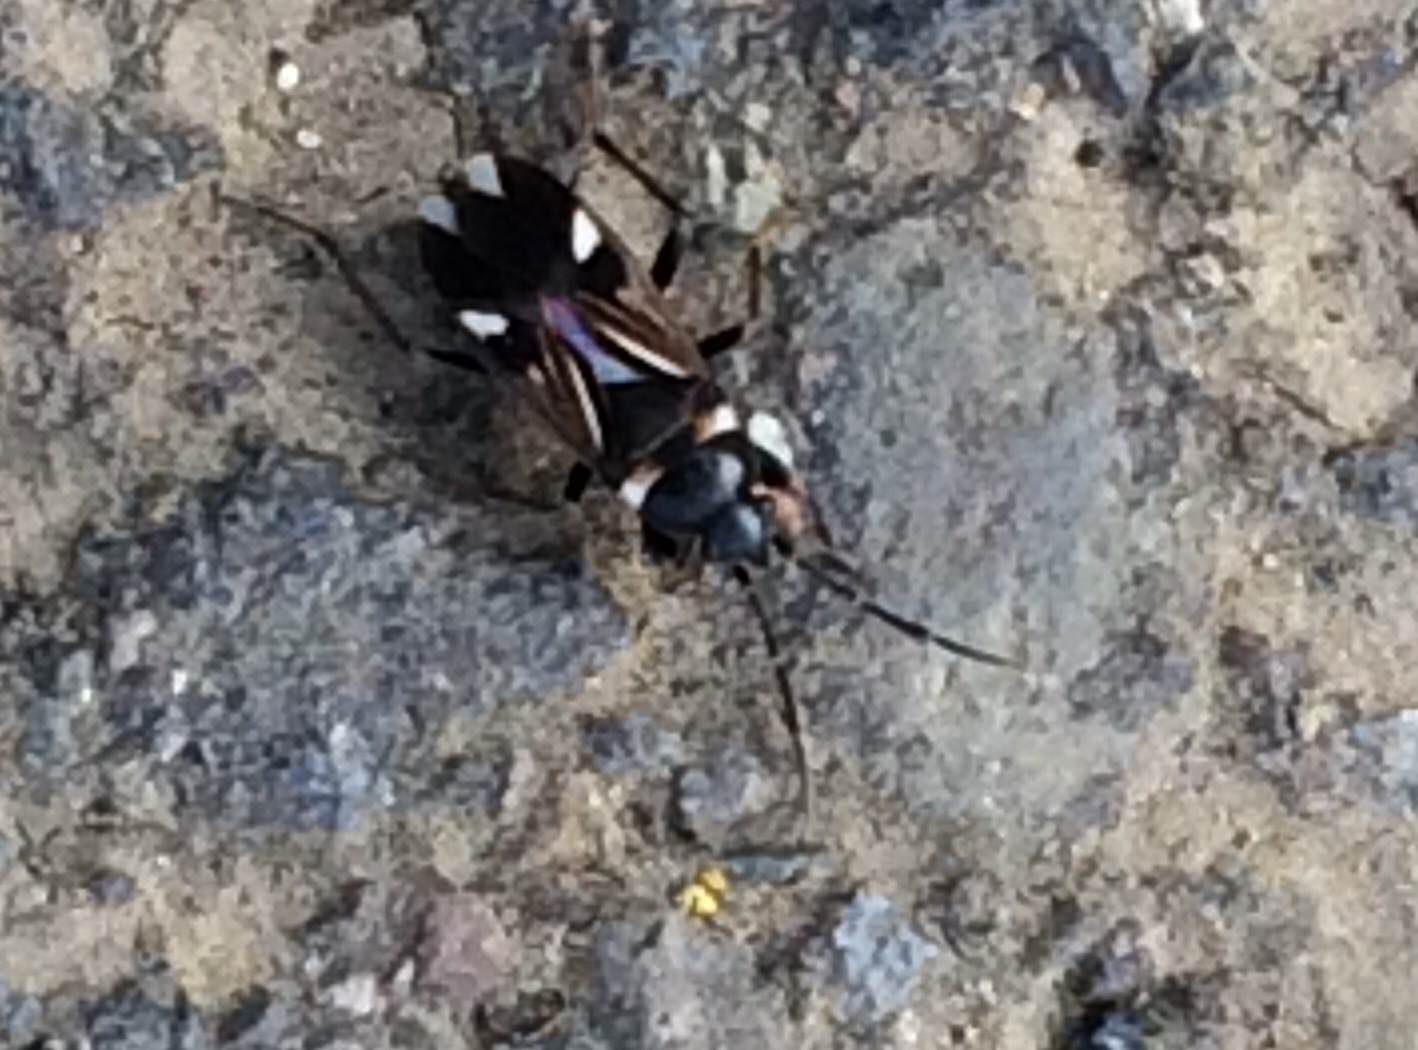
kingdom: Animalia
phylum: Arthropoda
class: Insecta
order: Hemiptera
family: Rhyparochromidae
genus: Raglius
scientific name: Raglius alboacuminatus
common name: Dirt-colored seed bug
